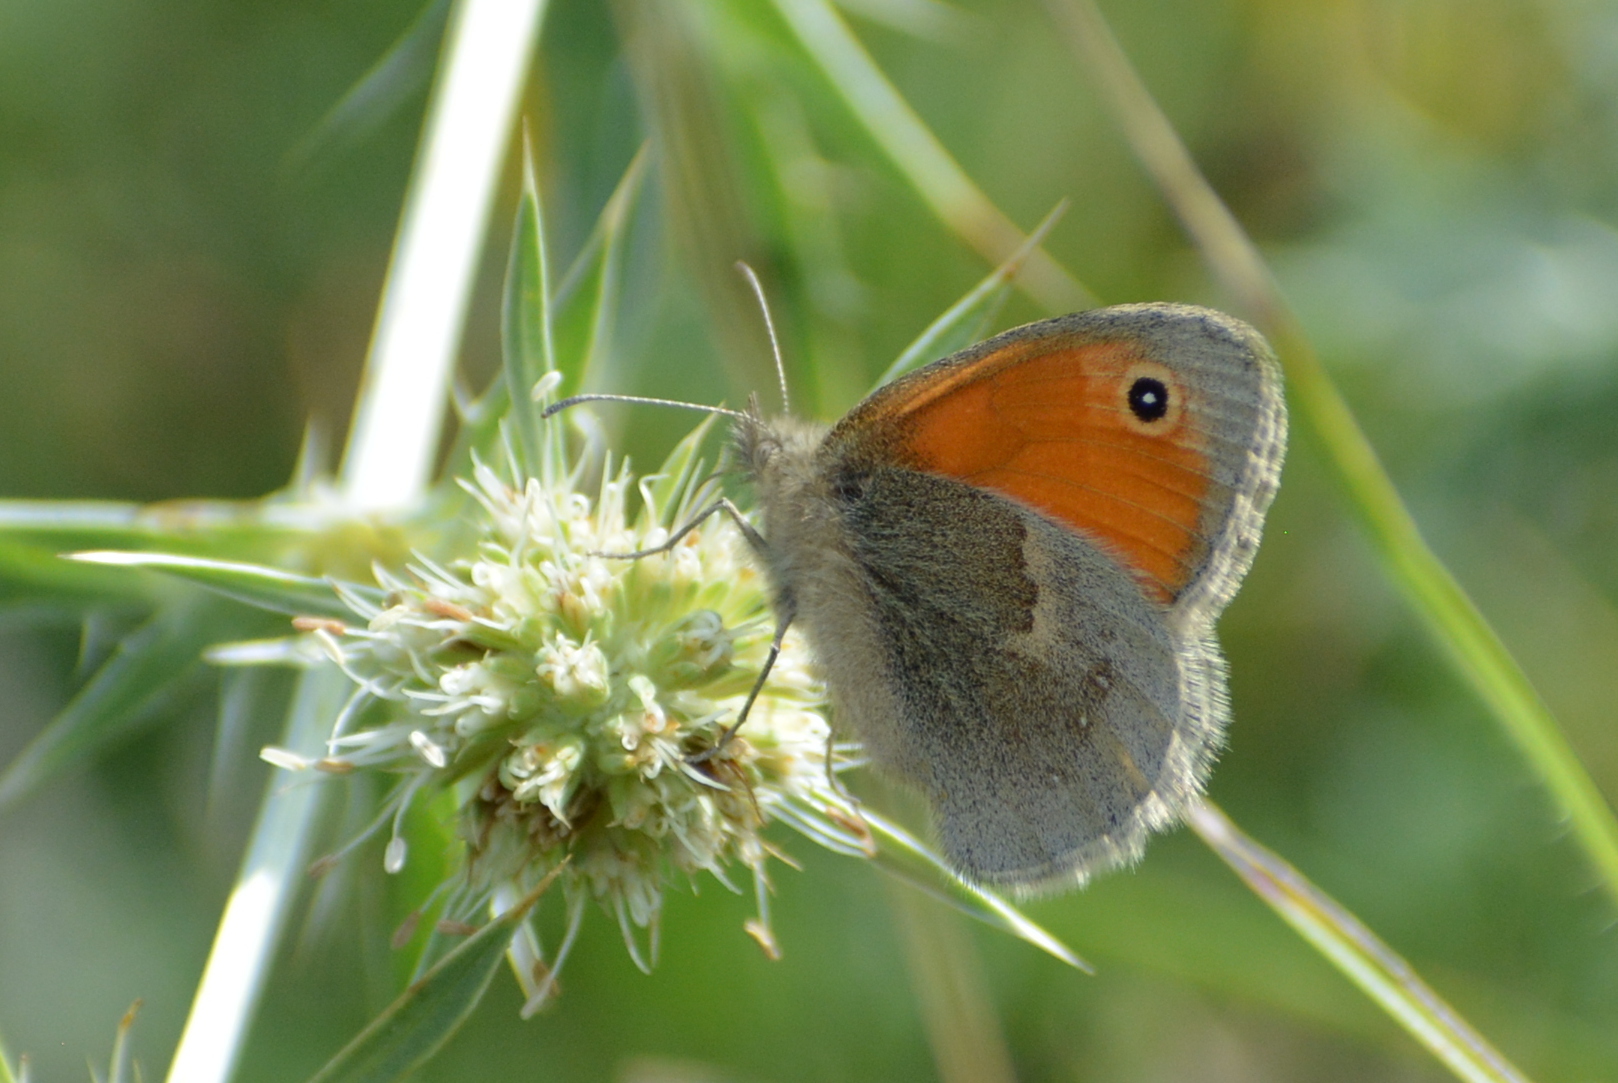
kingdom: Animalia
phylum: Arthropoda
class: Insecta
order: Lepidoptera
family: Nymphalidae
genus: Coenonympha
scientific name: Coenonympha pamphilus
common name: Small heath
